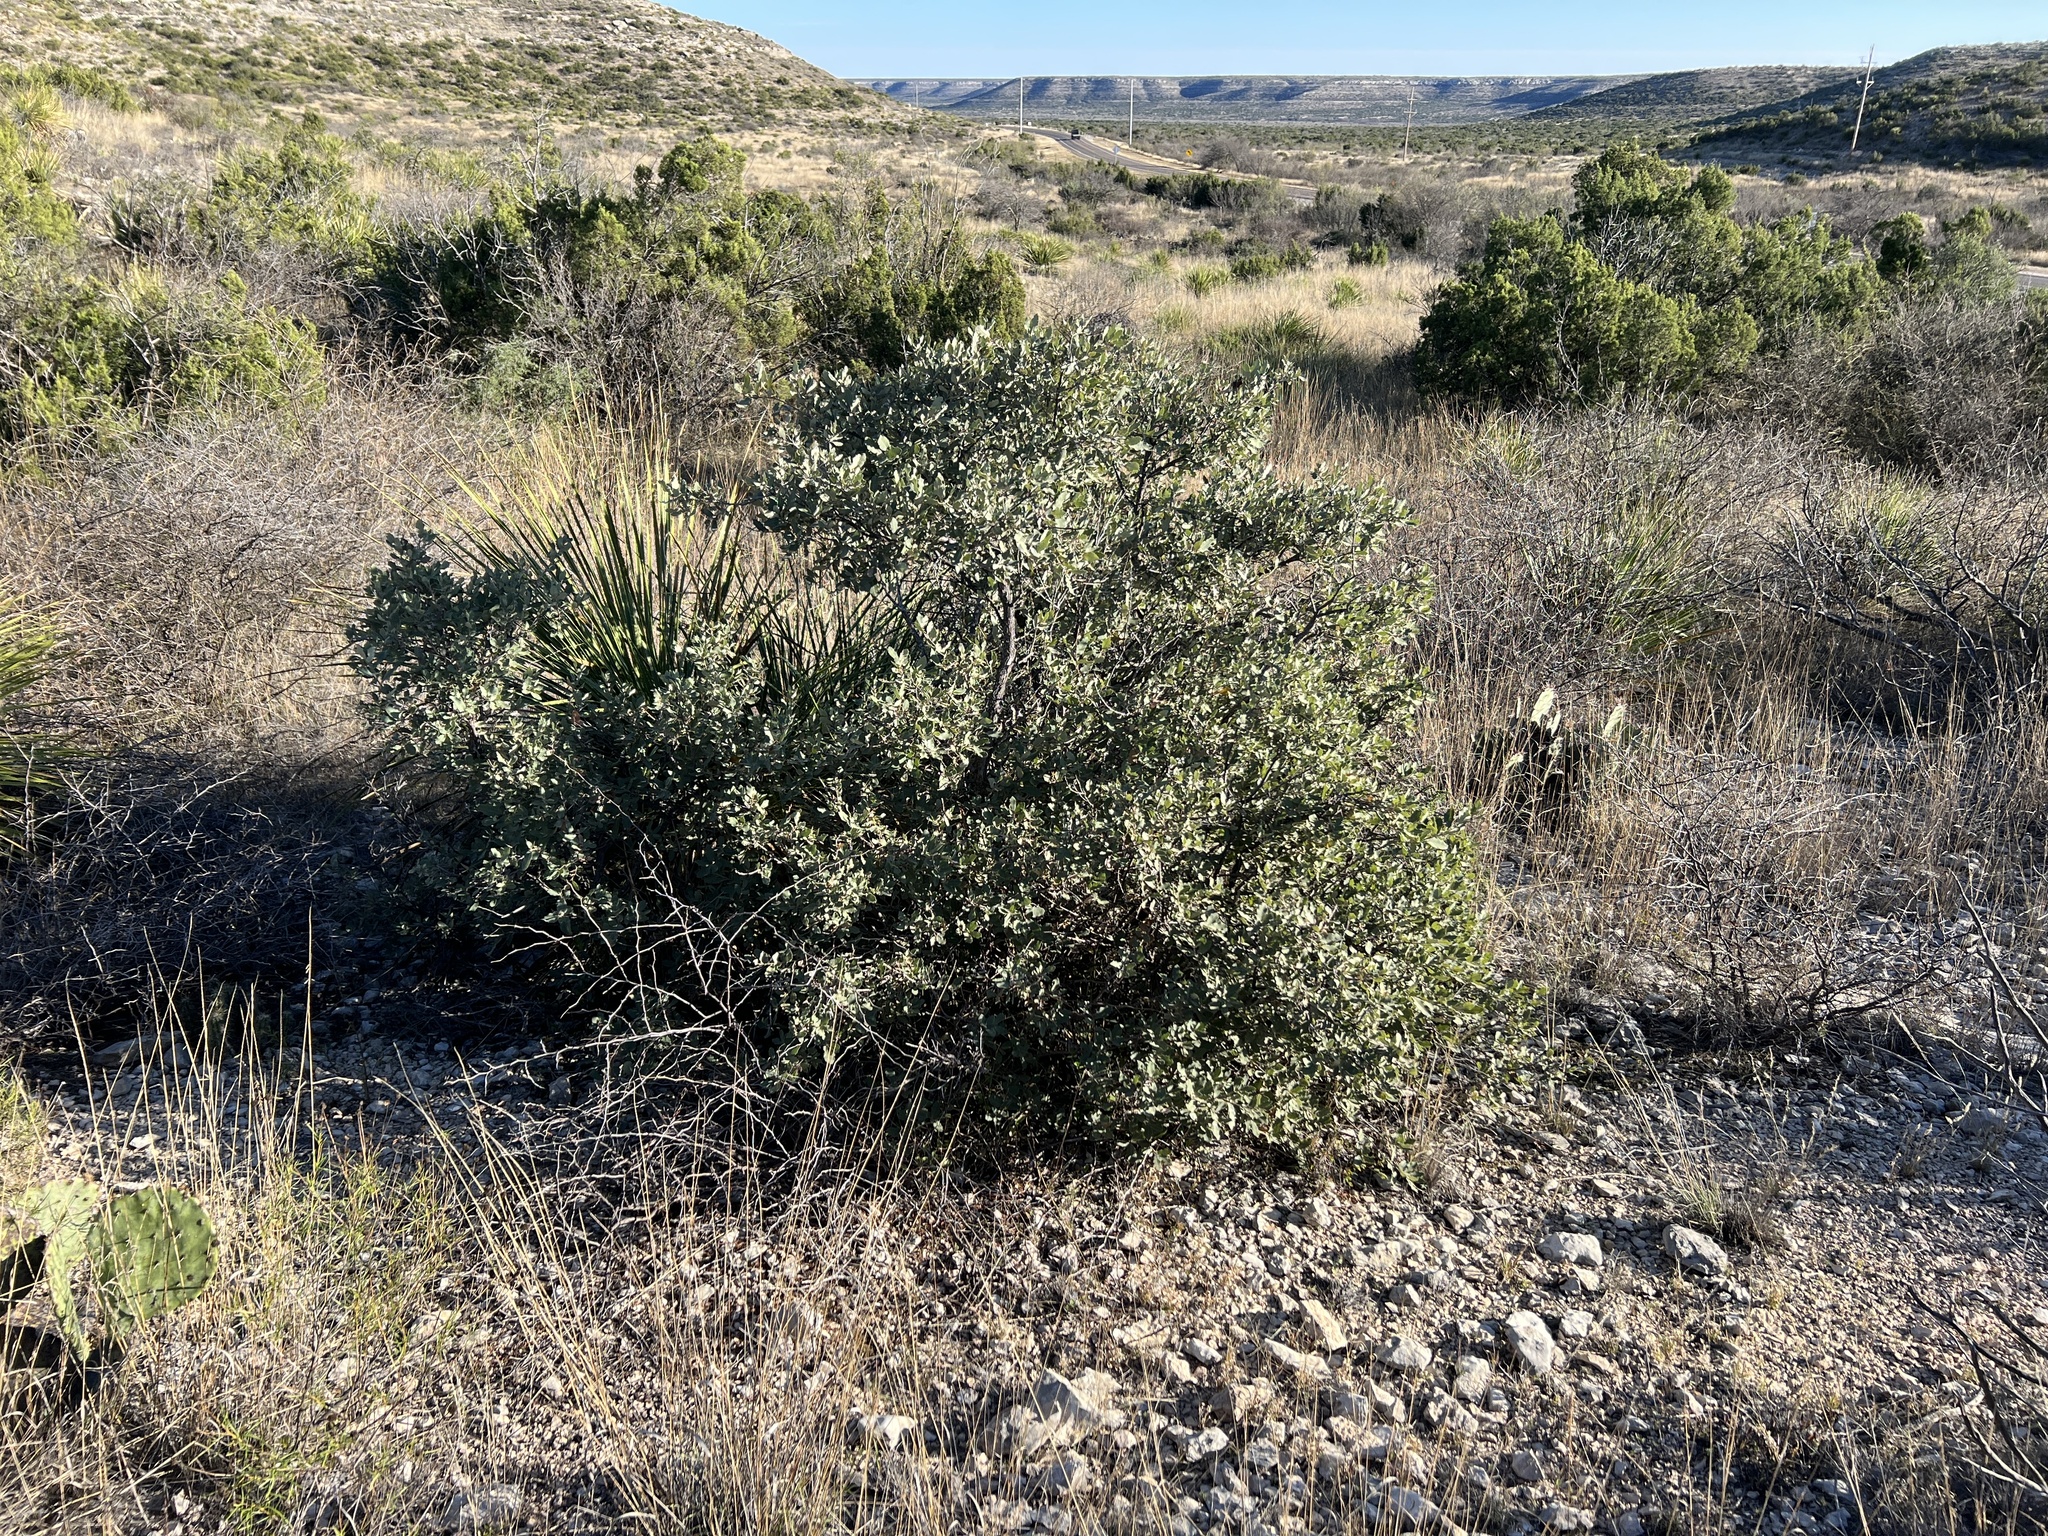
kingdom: Plantae
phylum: Tracheophyta
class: Magnoliopsida
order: Fagales
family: Fagaceae
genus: Quercus
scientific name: Quercus mohriana
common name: Mohr oak
